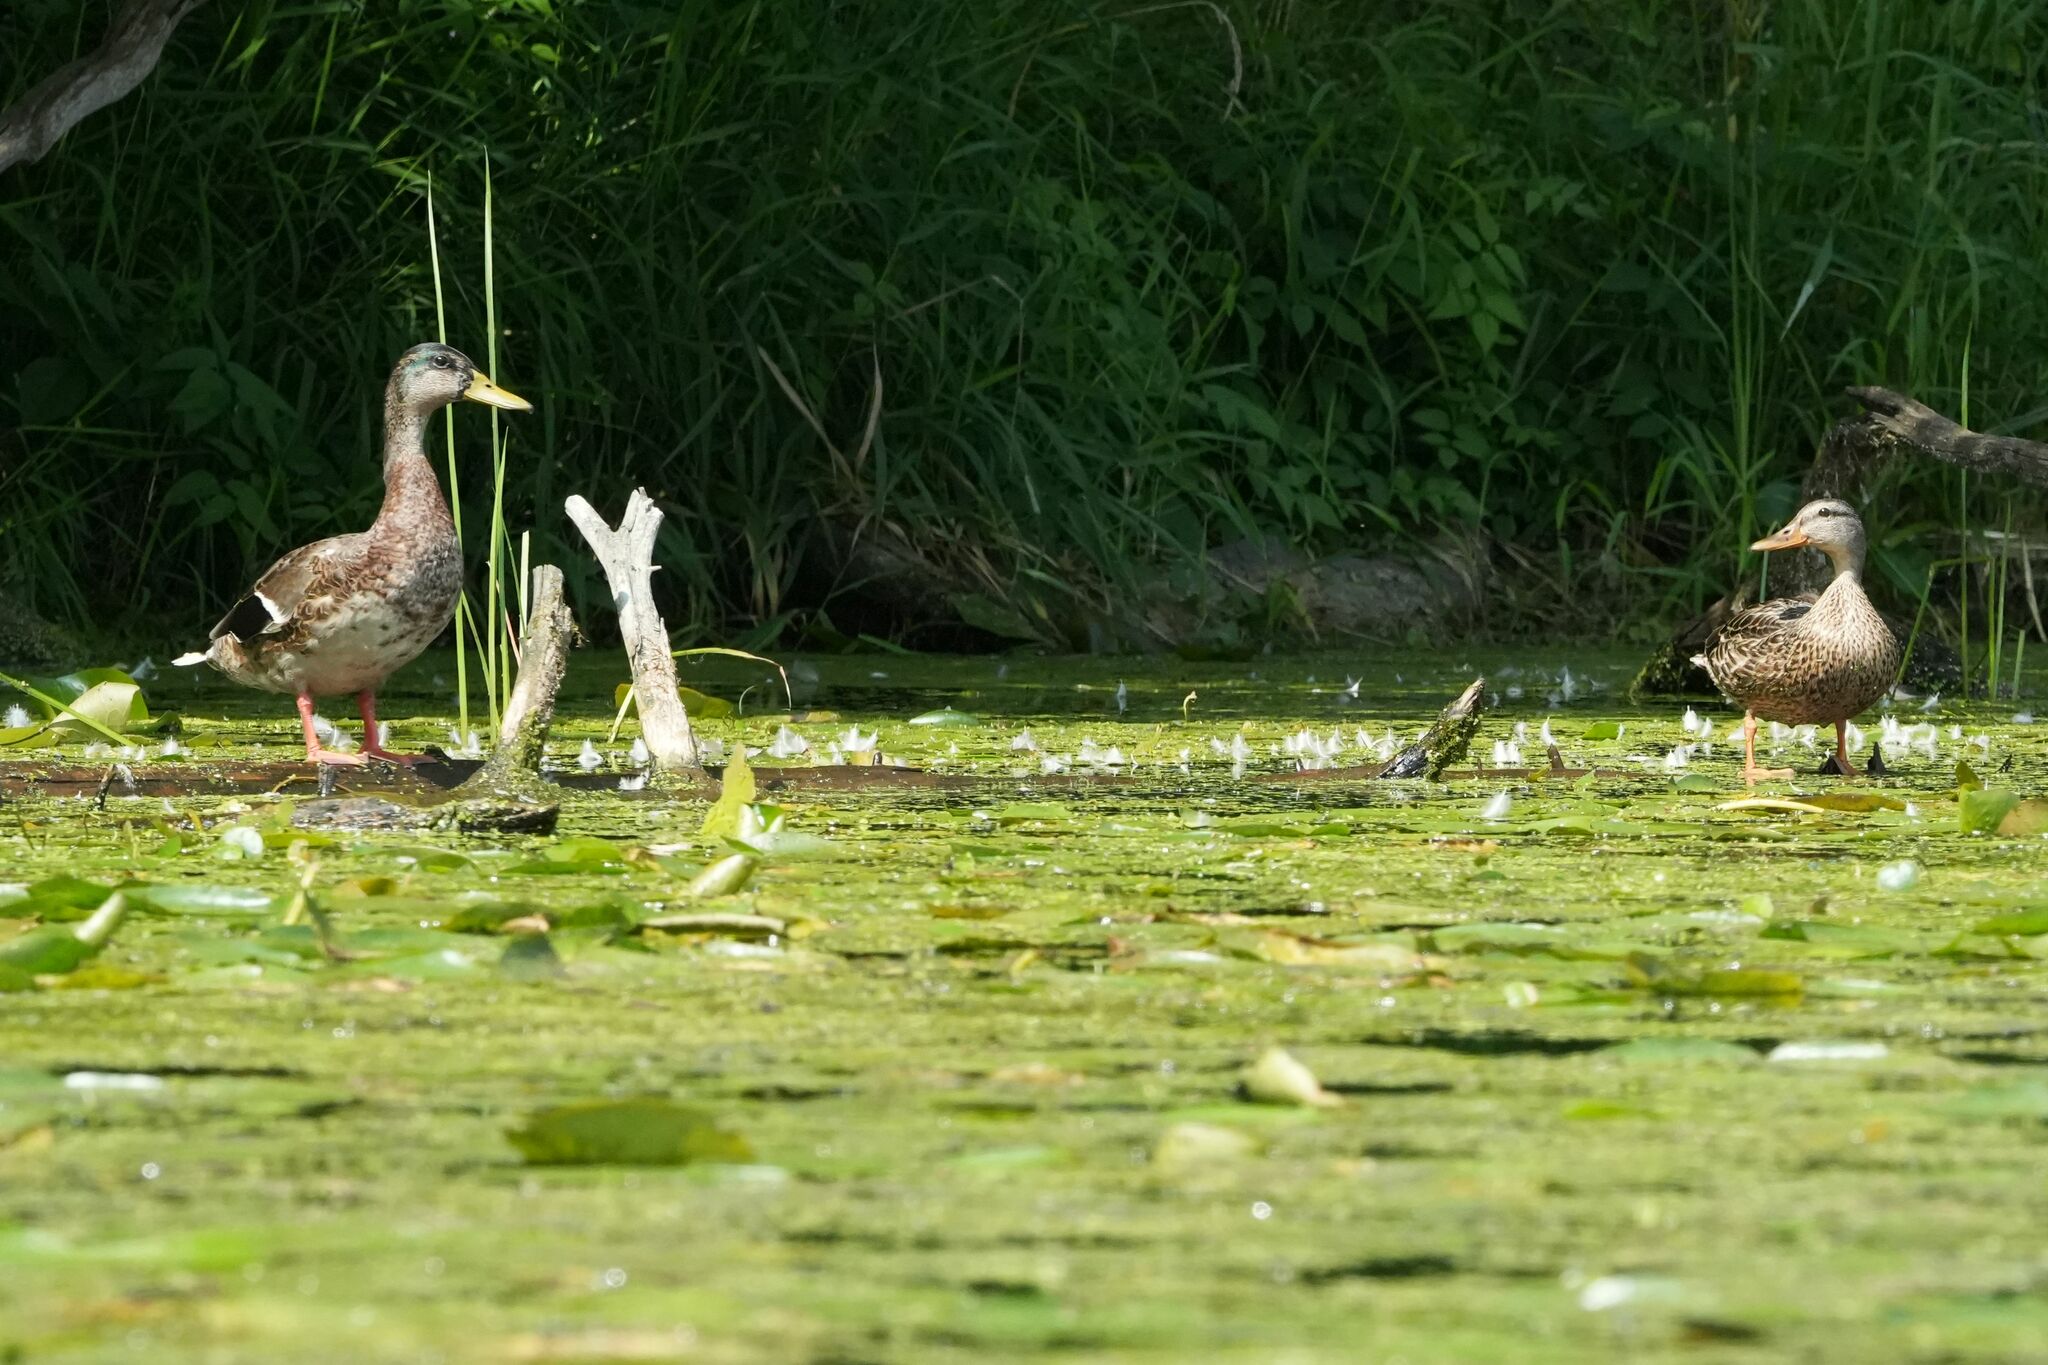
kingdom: Animalia
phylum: Chordata
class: Aves
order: Anseriformes
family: Anatidae
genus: Anas
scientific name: Anas platyrhynchos
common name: Mallard
